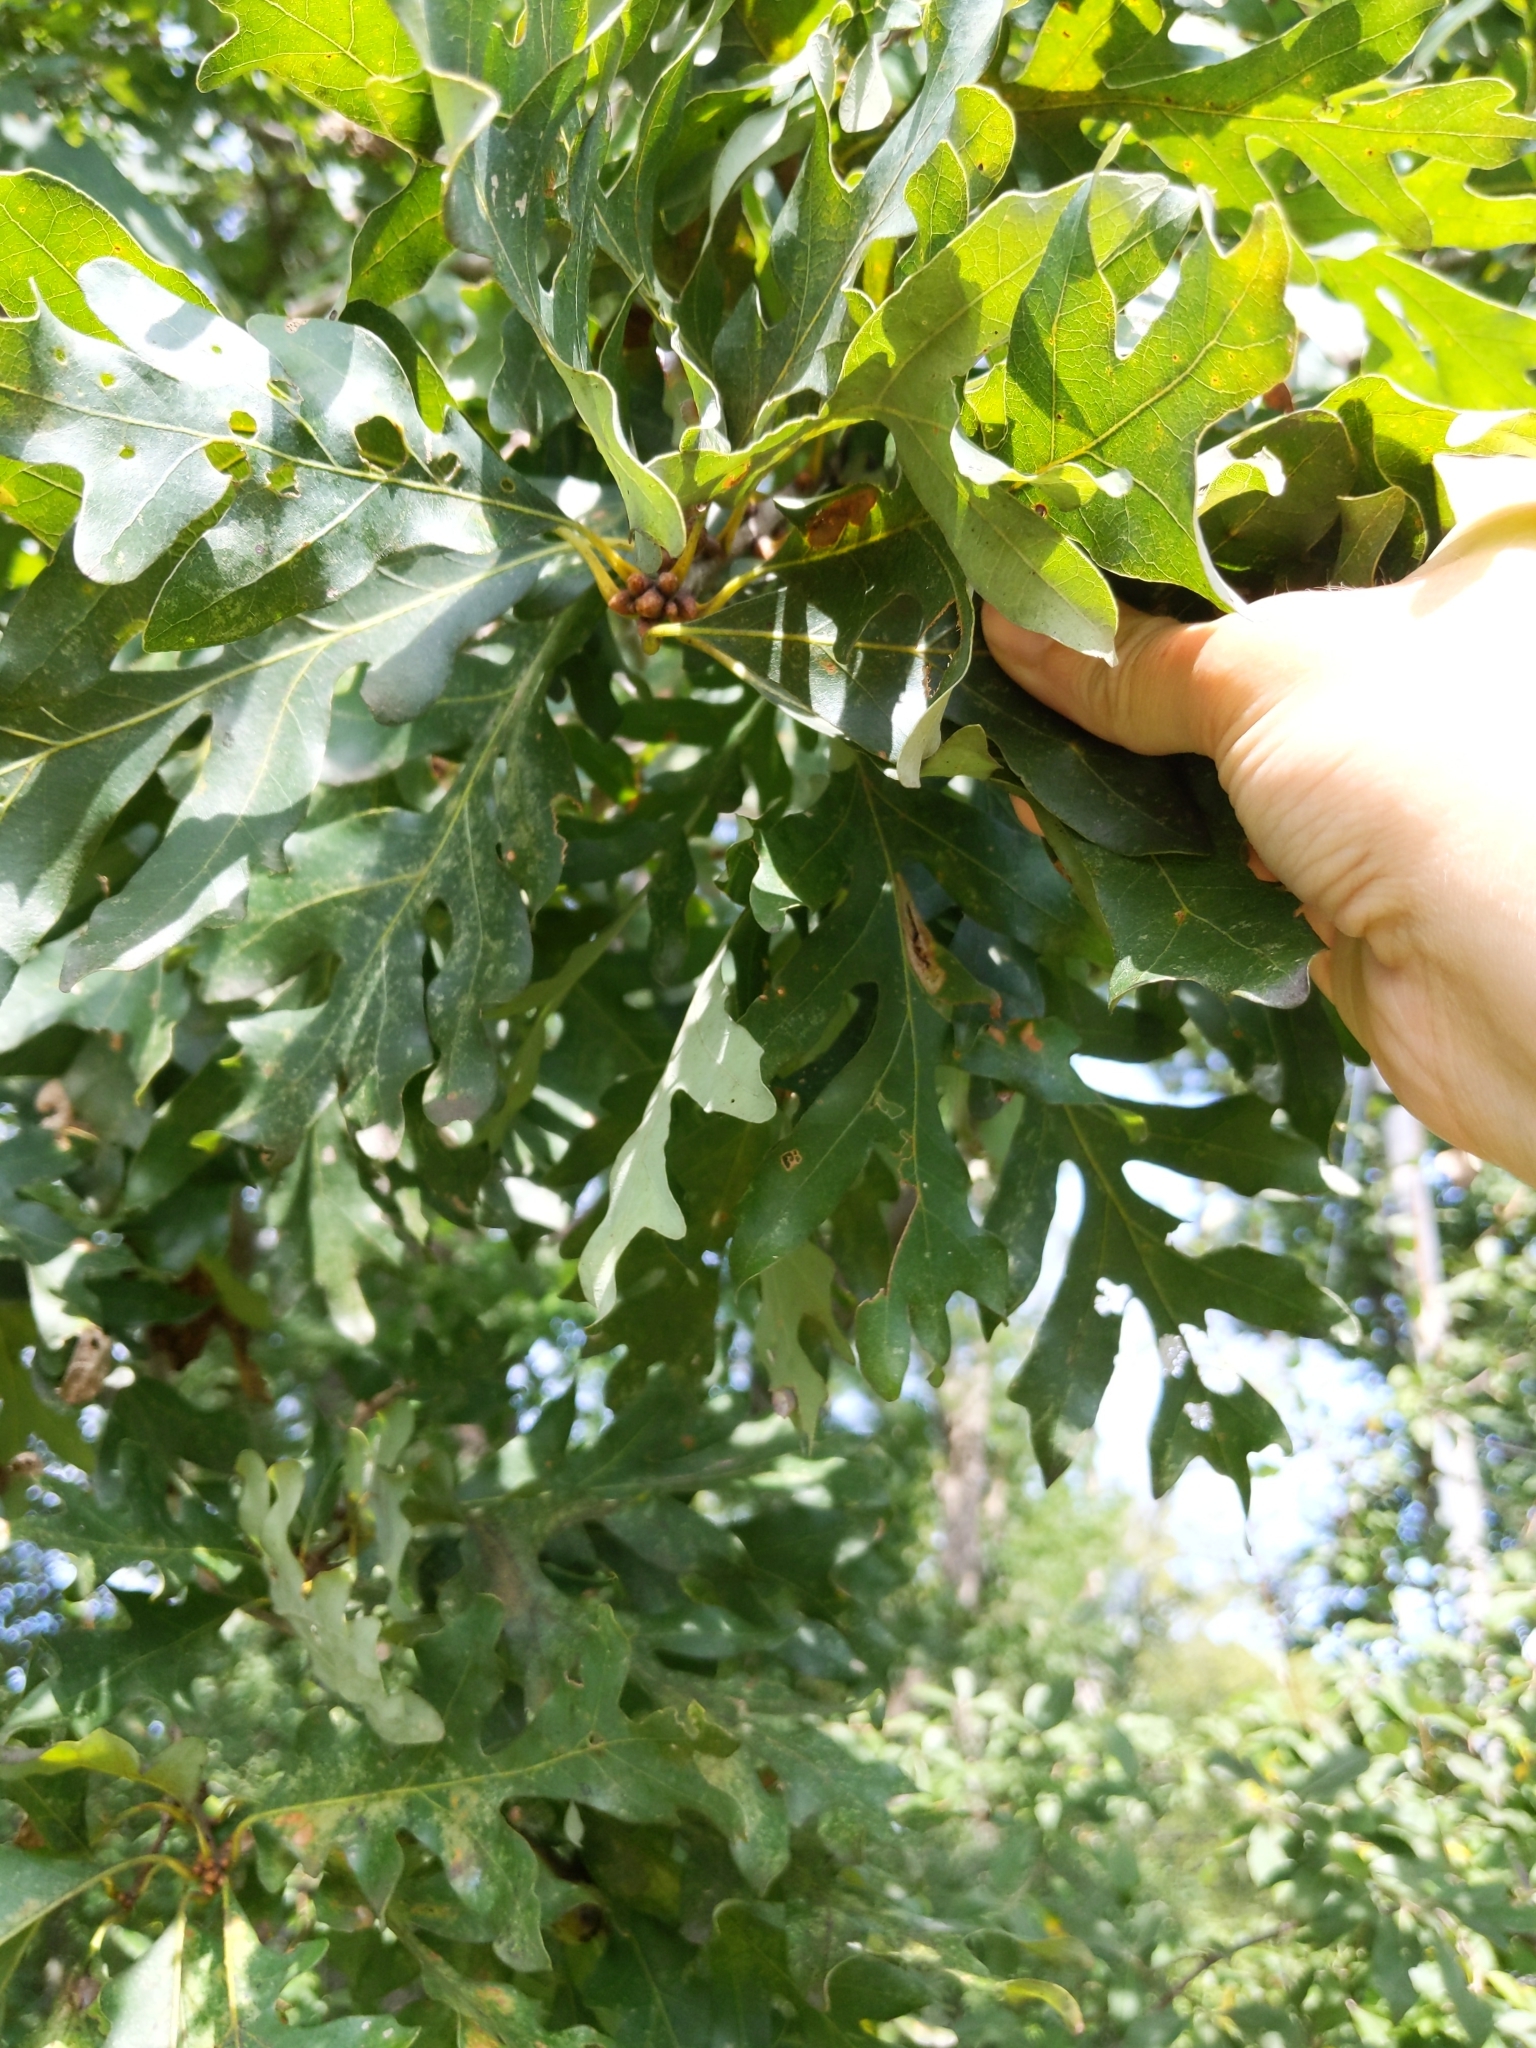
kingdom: Plantae
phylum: Tracheophyta
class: Magnoliopsida
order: Fagales
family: Fagaceae
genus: Quercus
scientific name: Quercus alba
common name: White oak
